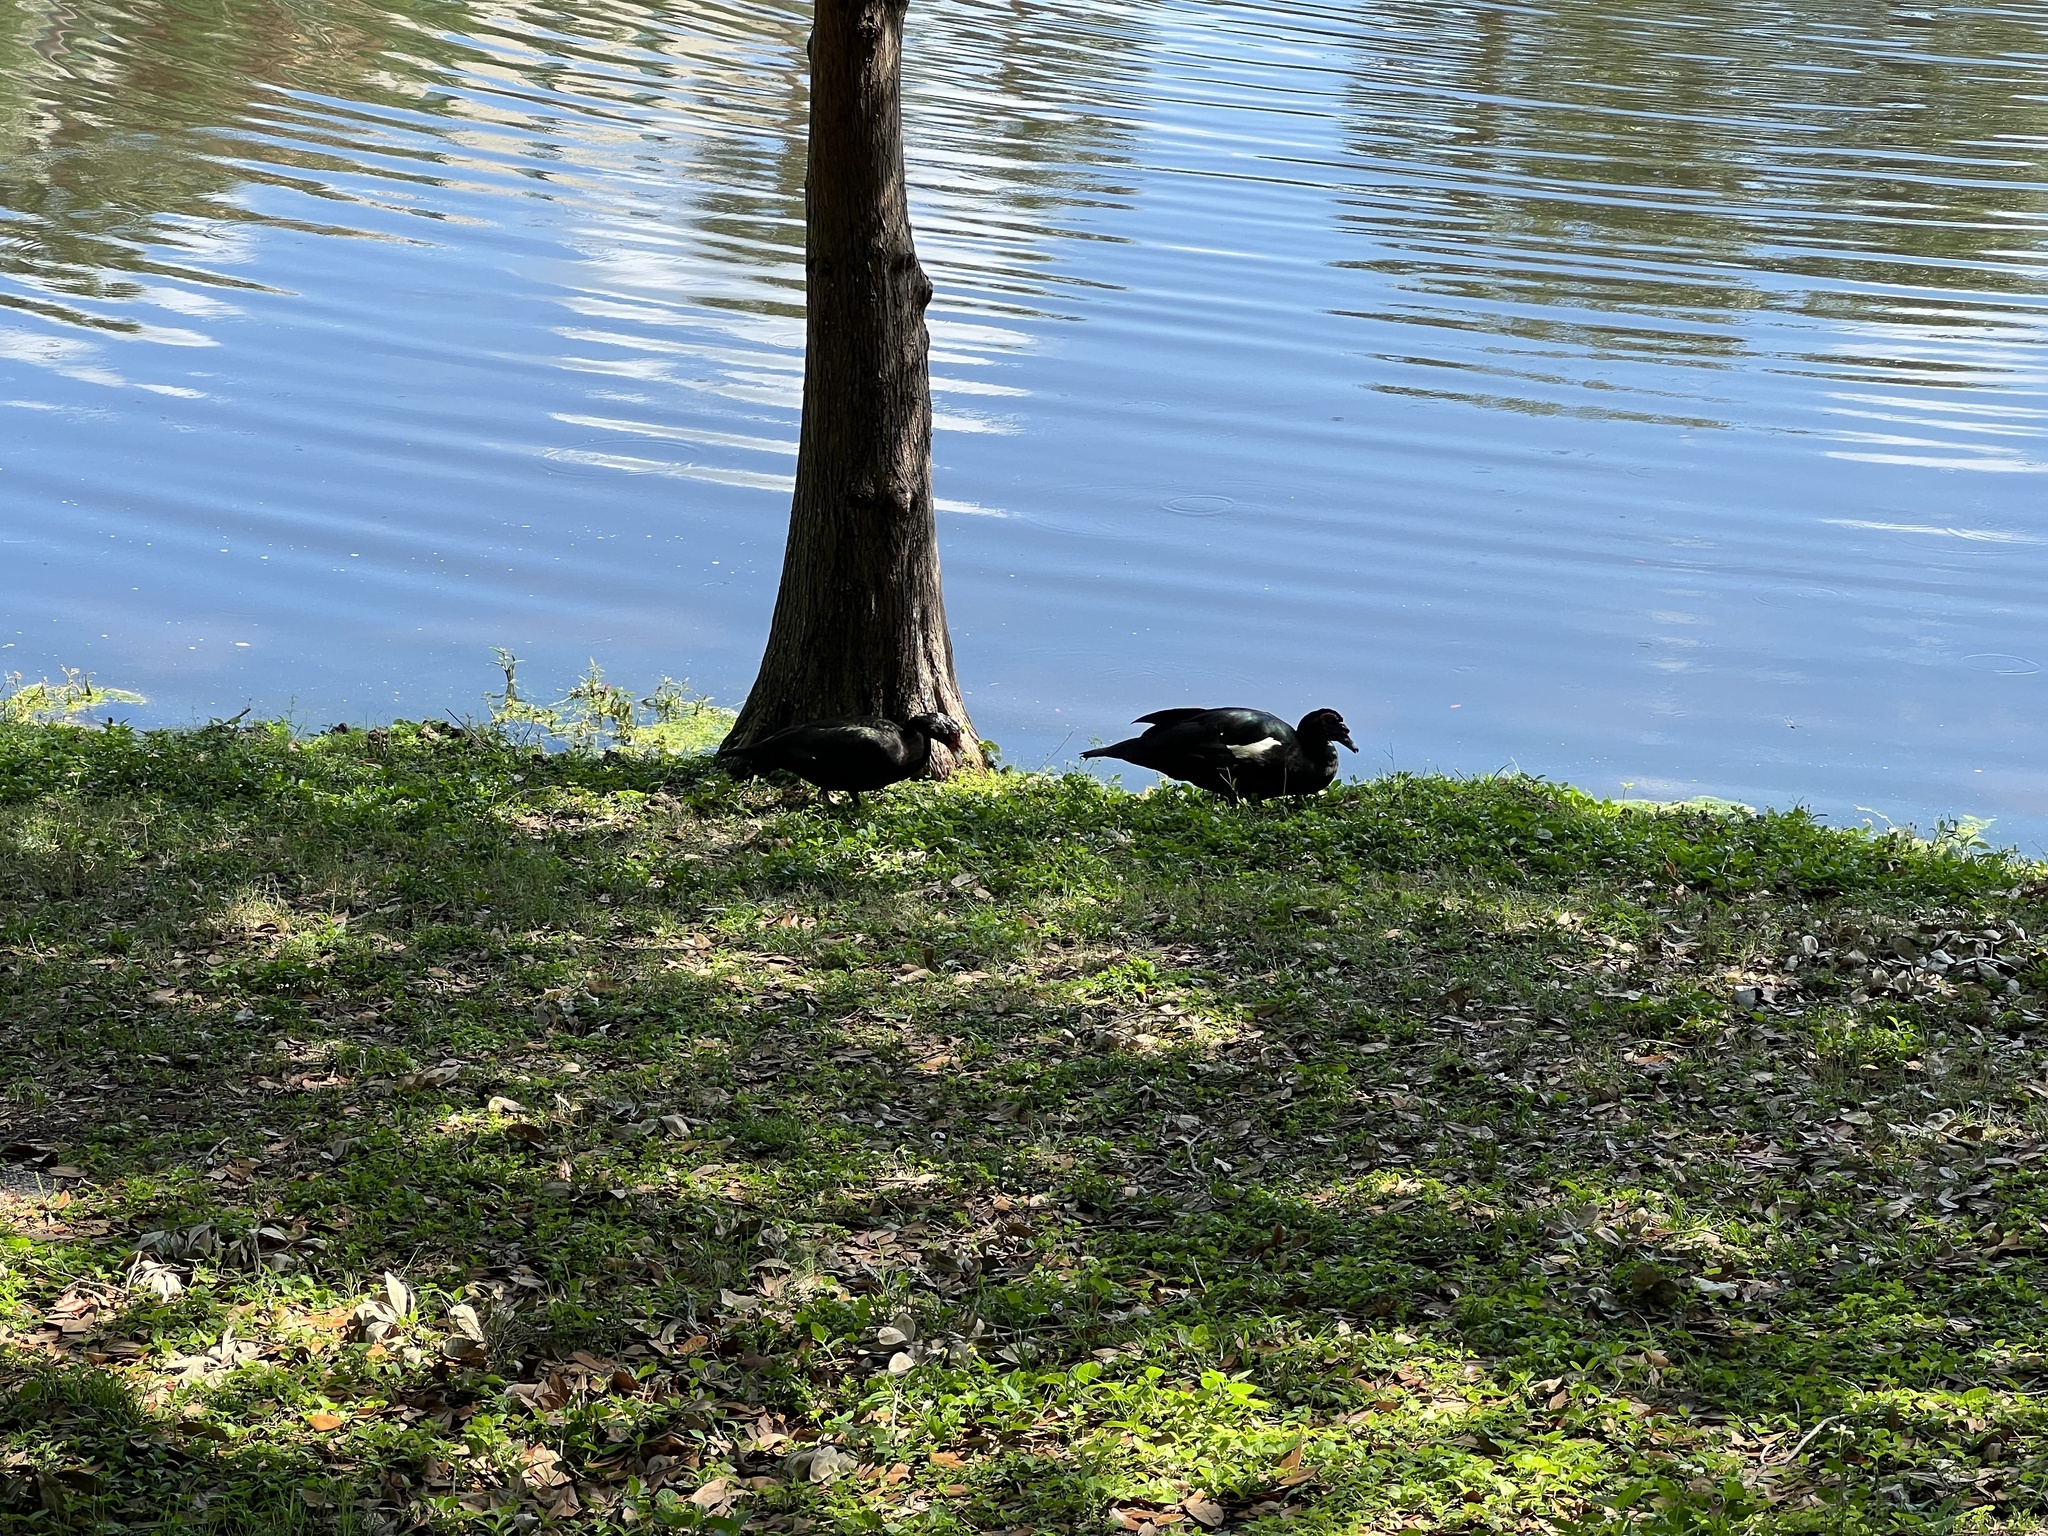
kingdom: Animalia
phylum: Chordata
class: Aves
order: Anseriformes
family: Anatidae
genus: Cairina
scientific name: Cairina moschata
